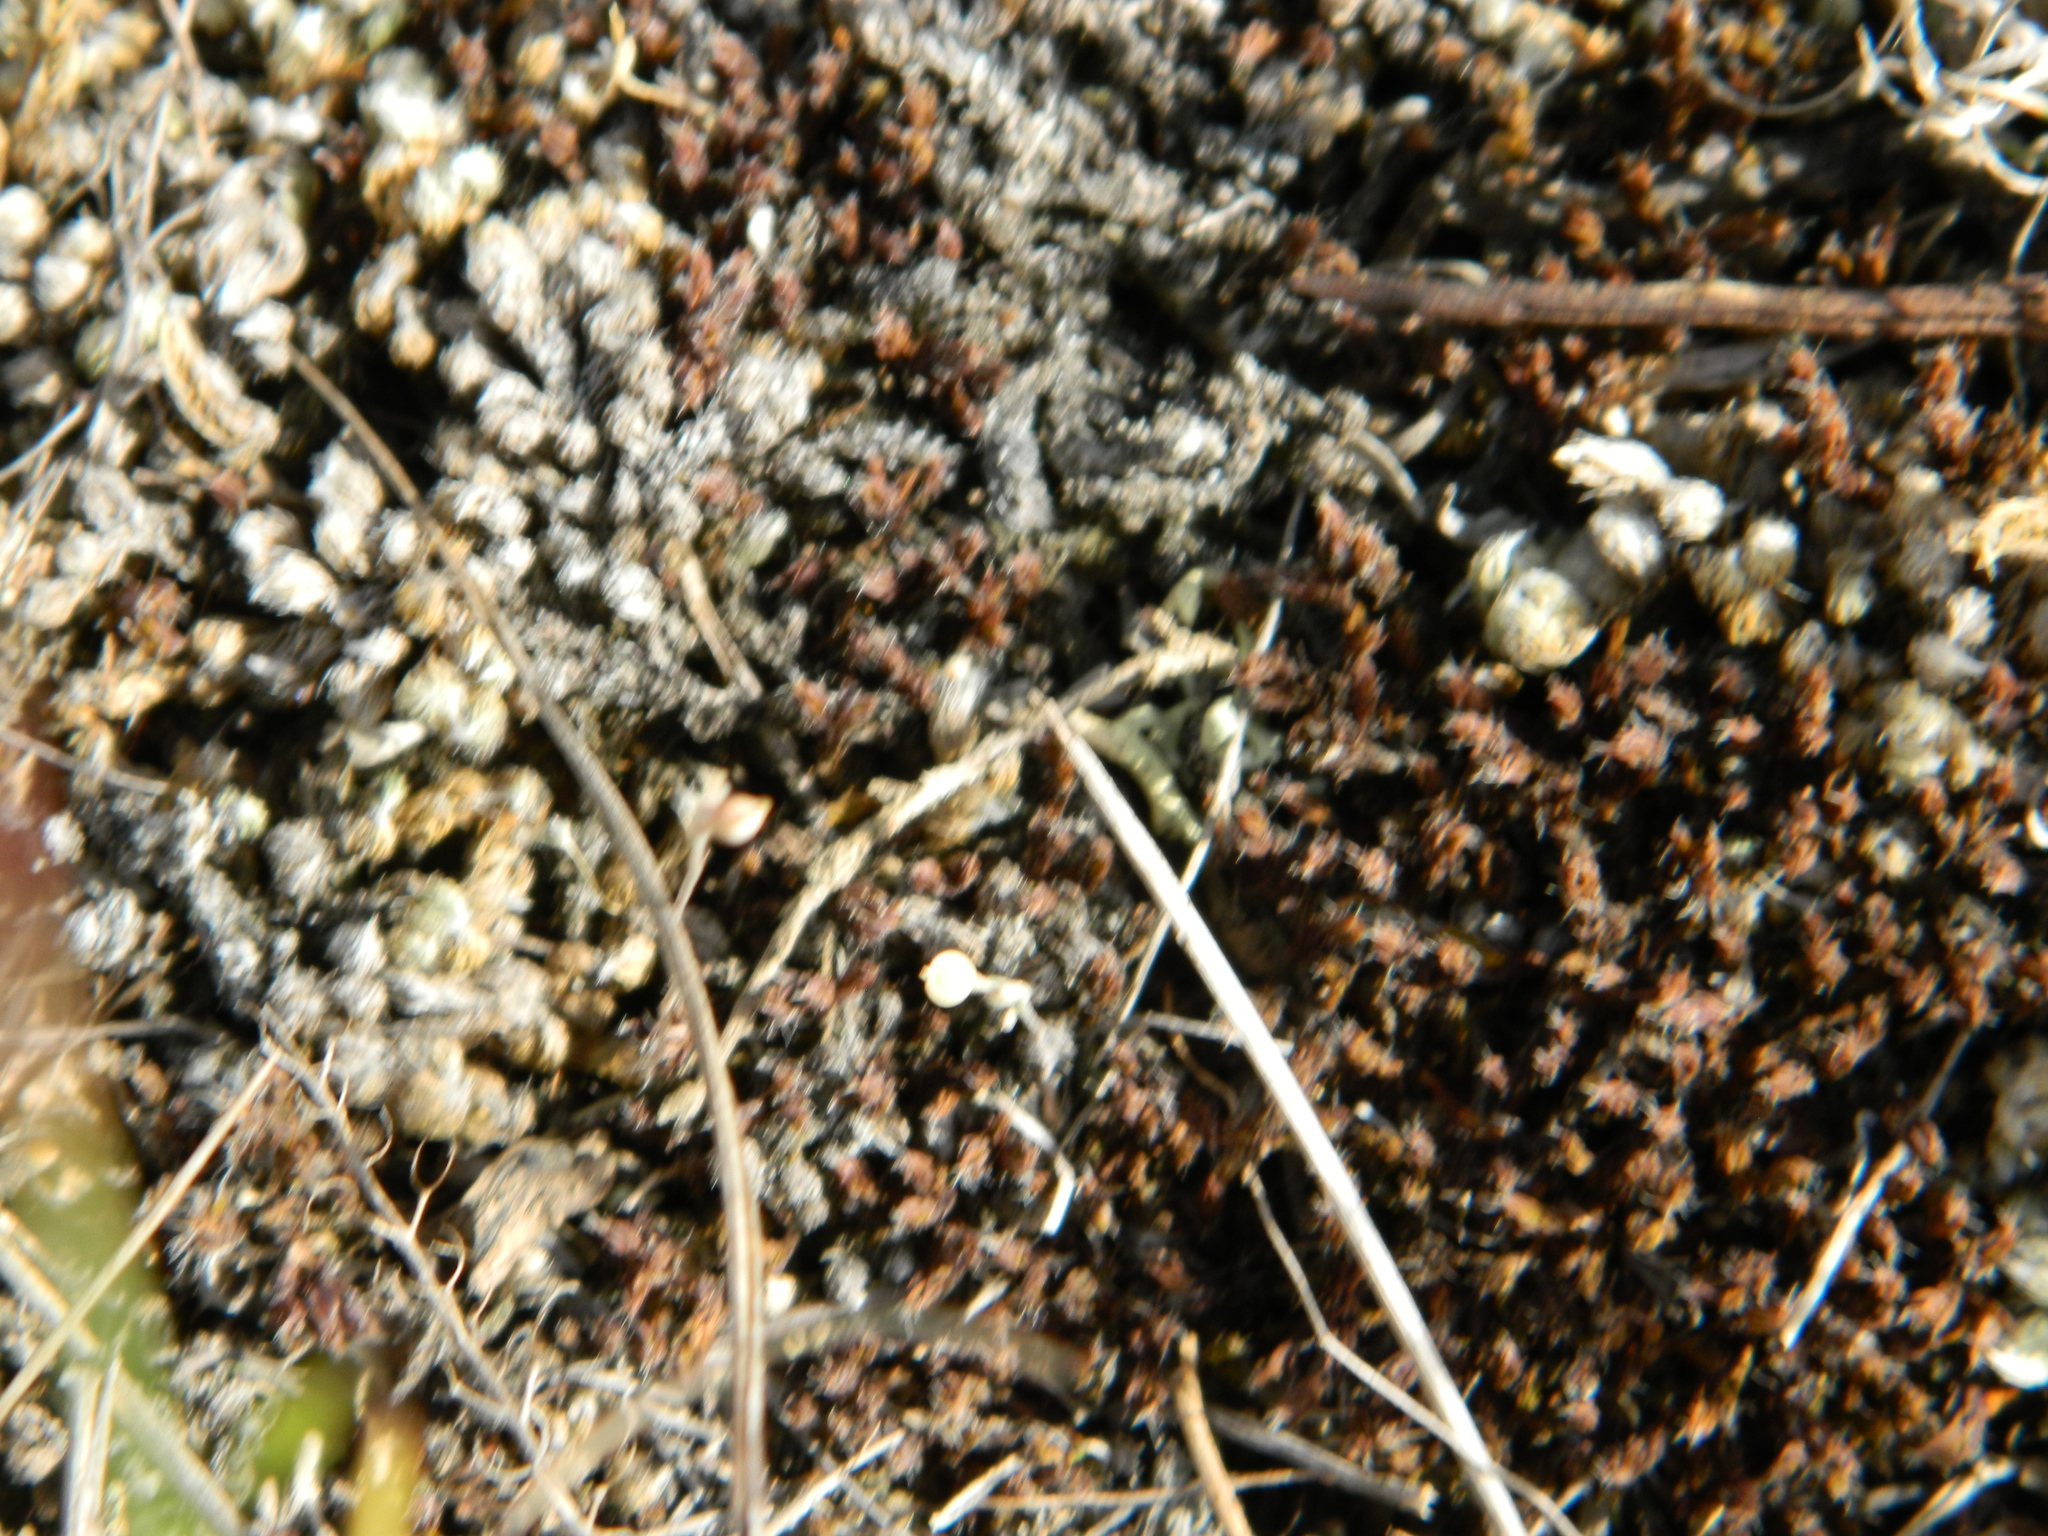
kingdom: Plantae
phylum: Tracheophyta
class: Lycopodiopsida
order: Selaginellales
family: Selaginellaceae
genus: Selaginella
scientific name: Selaginella densa
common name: Mountain spike-moss
